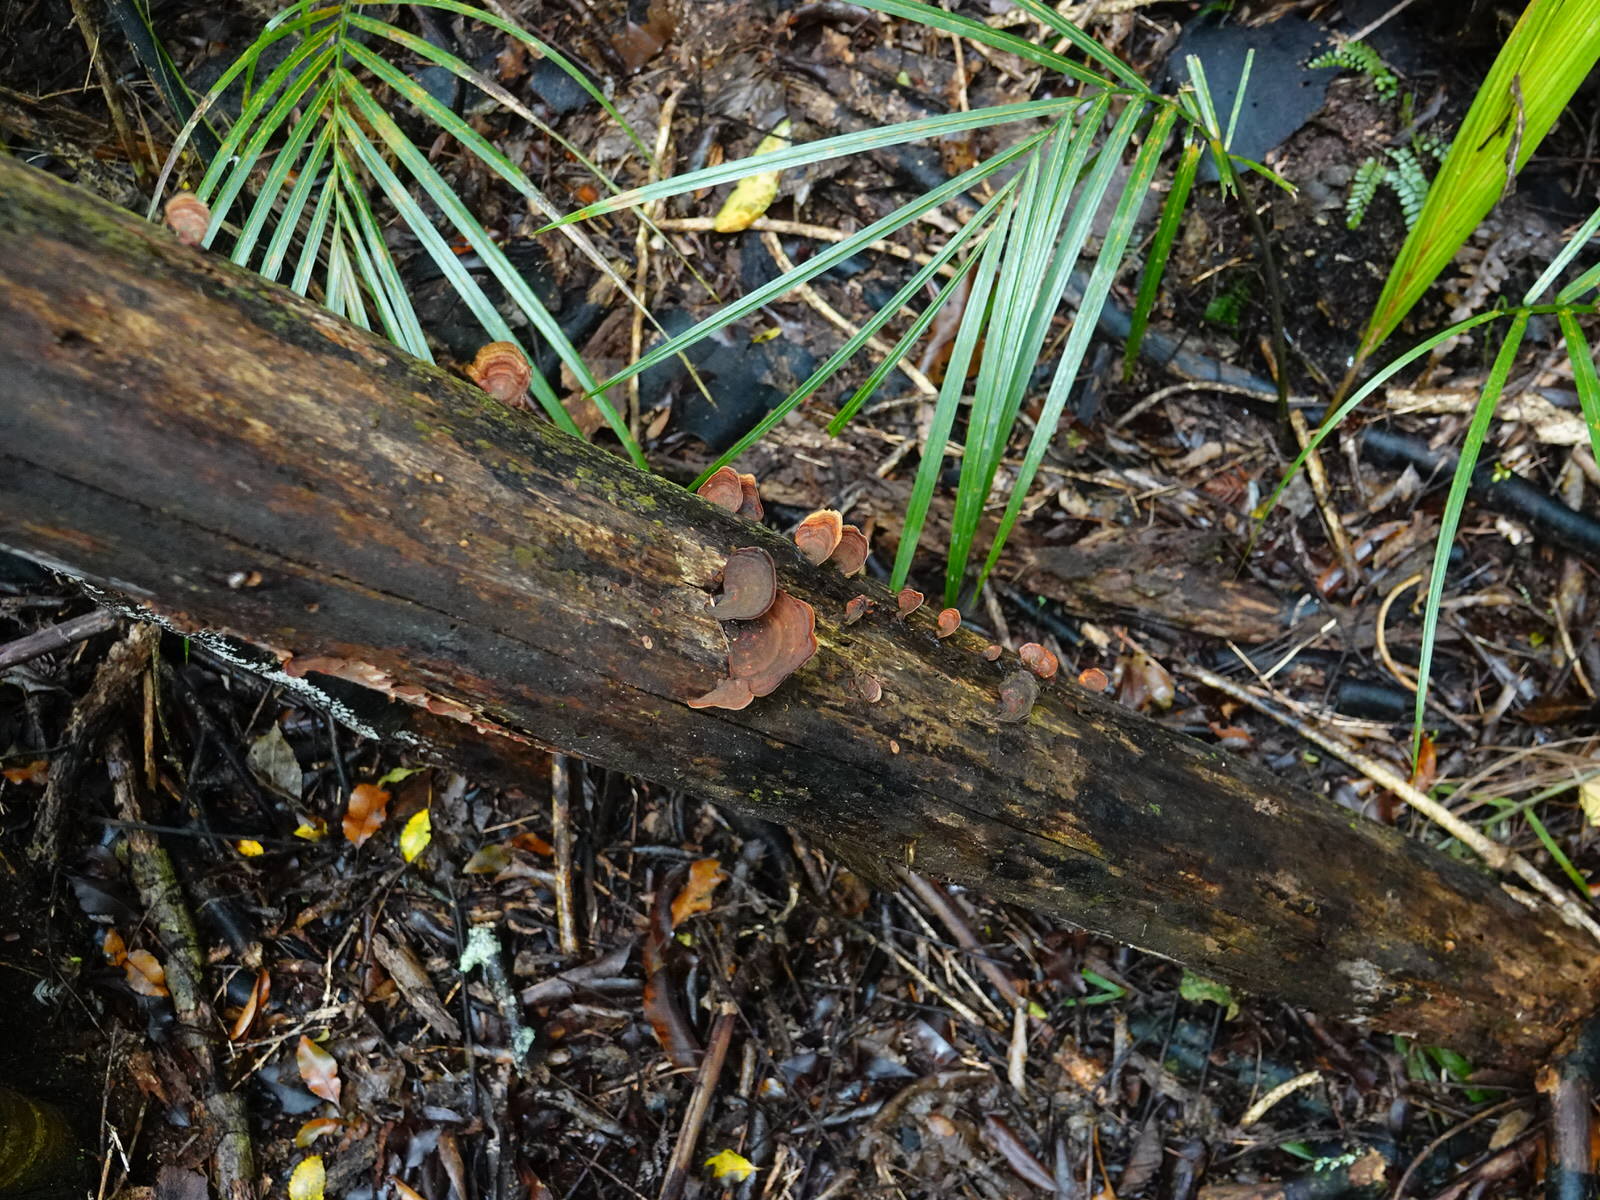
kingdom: Fungi
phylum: Basidiomycota
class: Agaricomycetes
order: Russulales
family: Stereaceae
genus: Stereum
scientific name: Stereum versicolor
